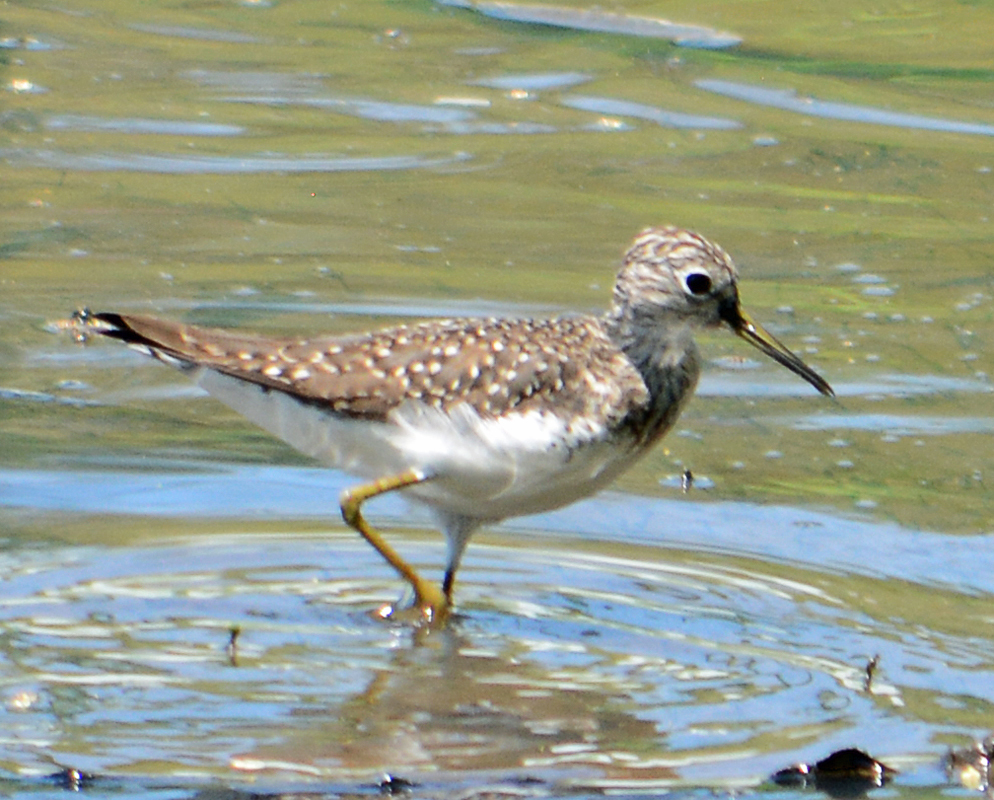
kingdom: Animalia
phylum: Chordata
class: Aves
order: Charadriiformes
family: Scolopacidae
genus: Tringa
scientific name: Tringa solitaria
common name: Solitary sandpiper
